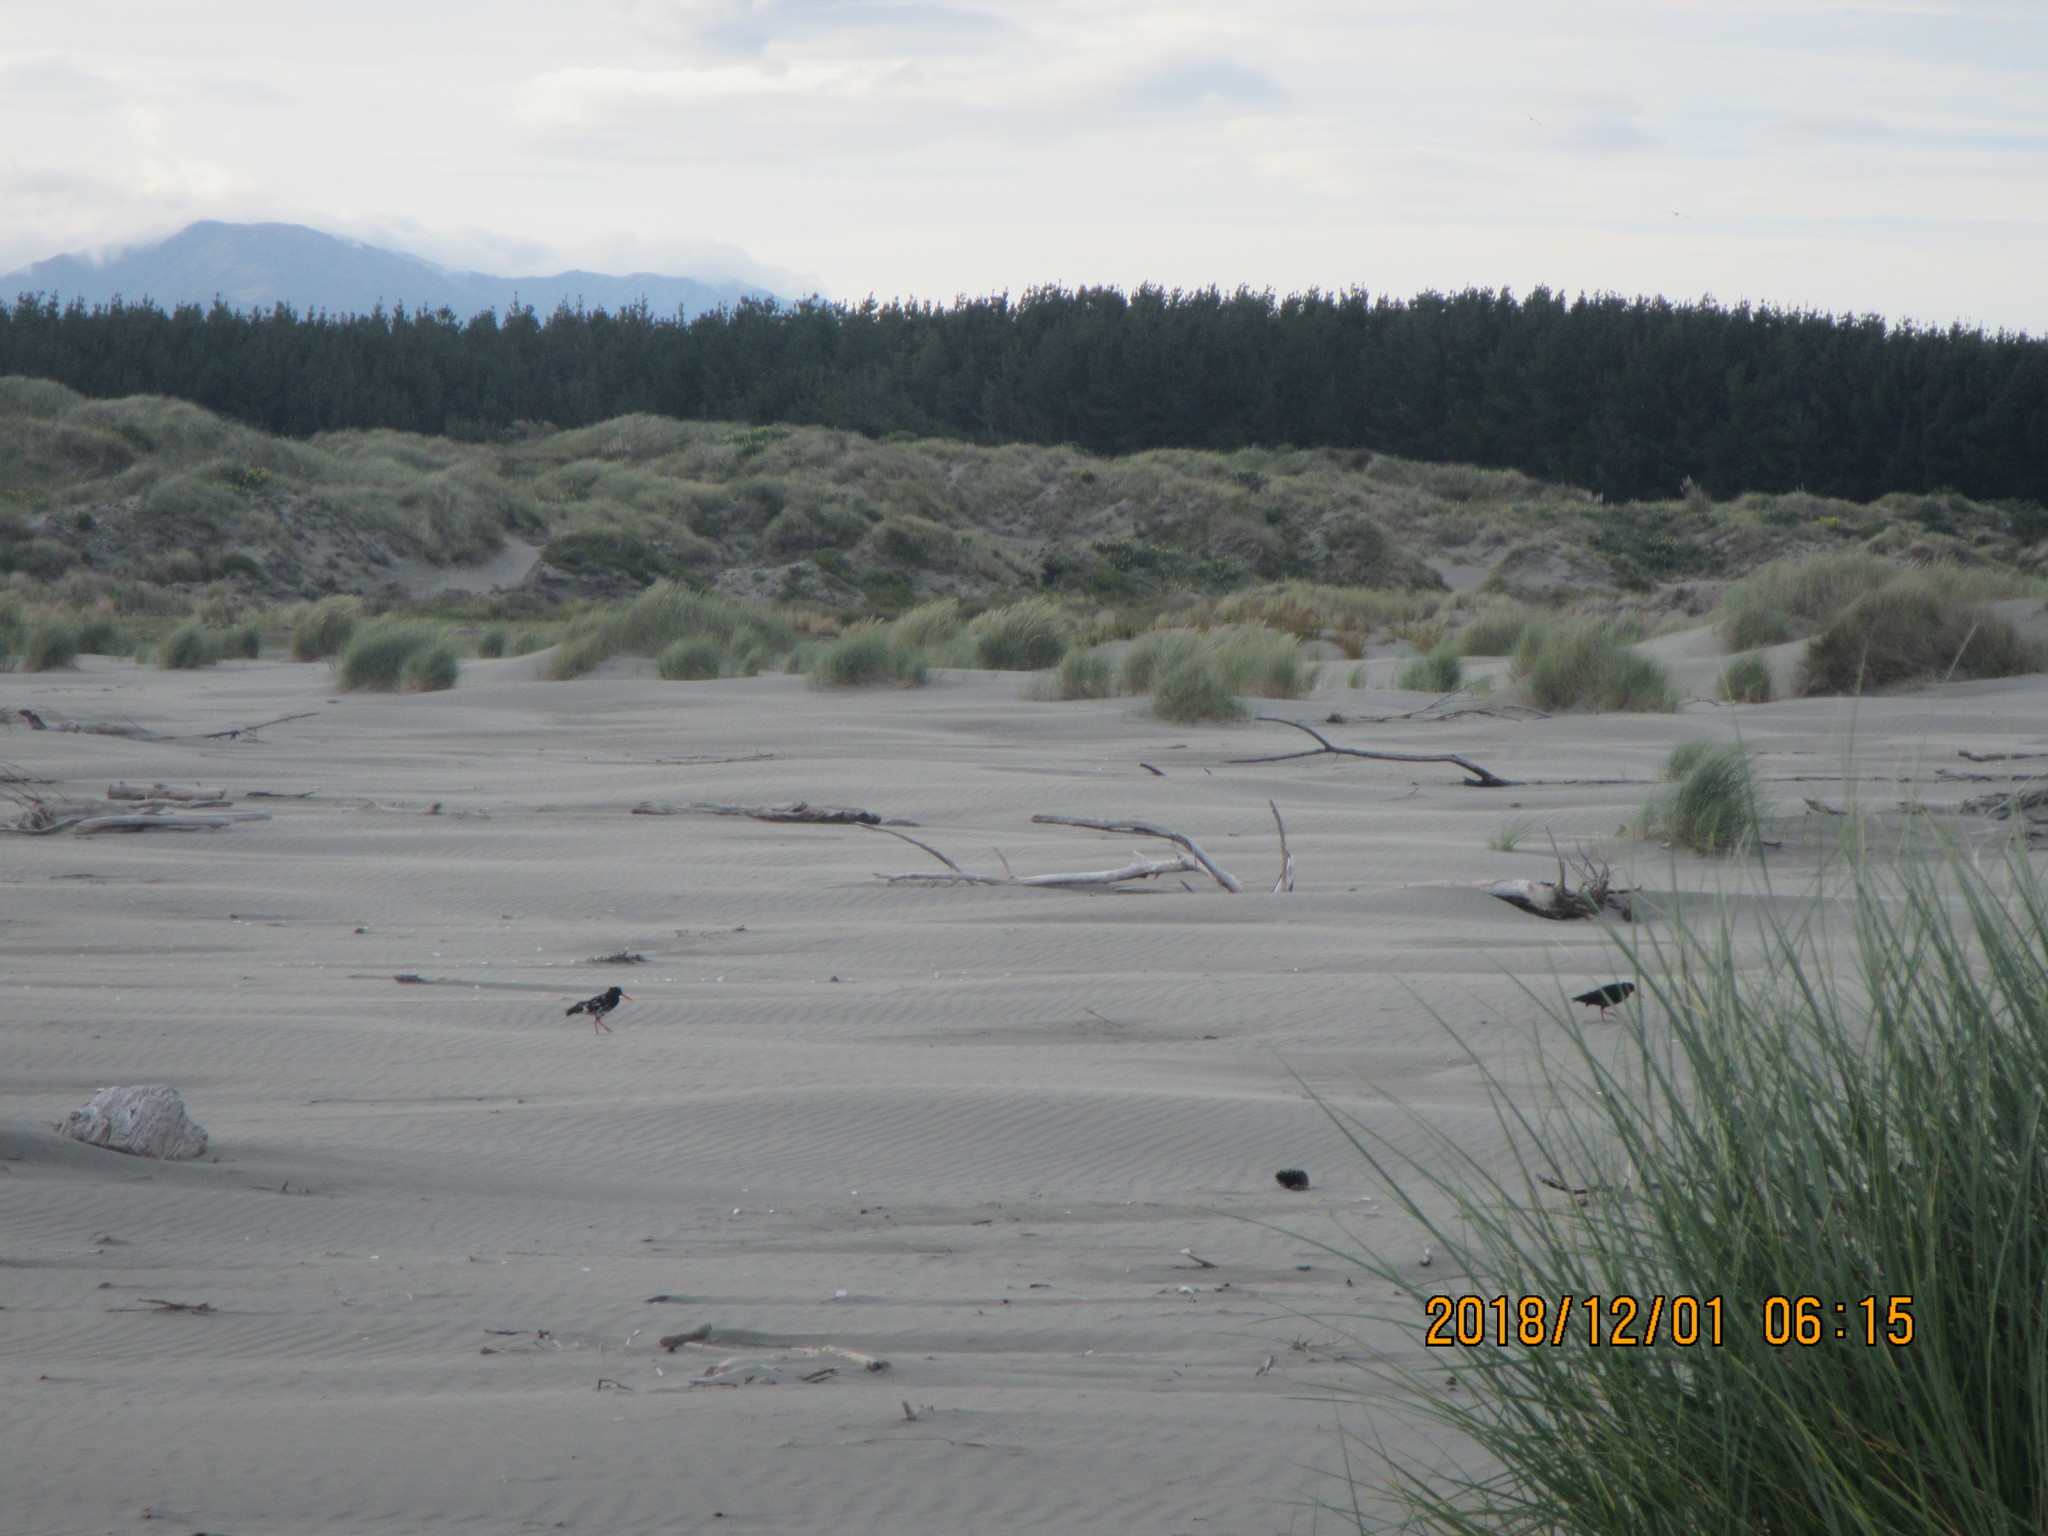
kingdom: Animalia
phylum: Chordata
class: Aves
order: Charadriiformes
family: Haematopodidae
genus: Haematopus
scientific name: Haematopus unicolor
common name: Variable oystercatcher
